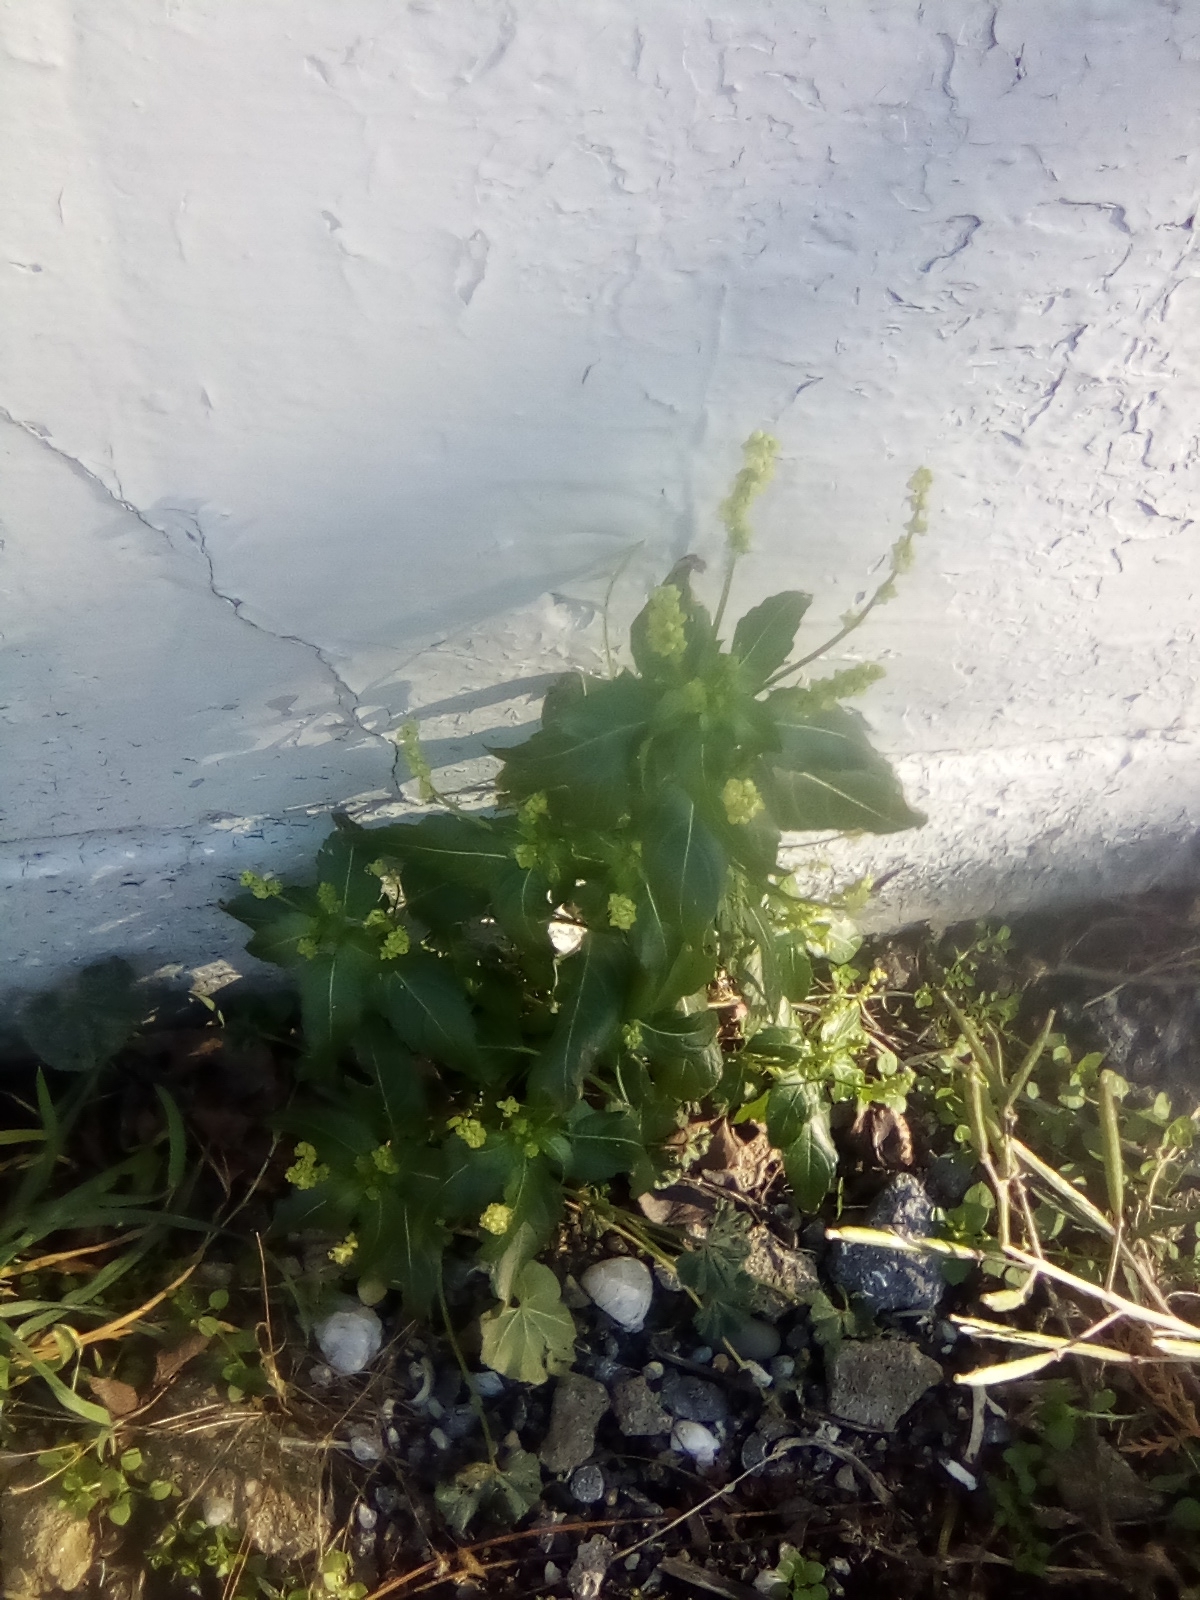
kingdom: Plantae
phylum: Tracheophyta
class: Magnoliopsida
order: Malpighiales
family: Euphorbiaceae
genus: Mercurialis
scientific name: Mercurialis annua
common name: Annual mercury
